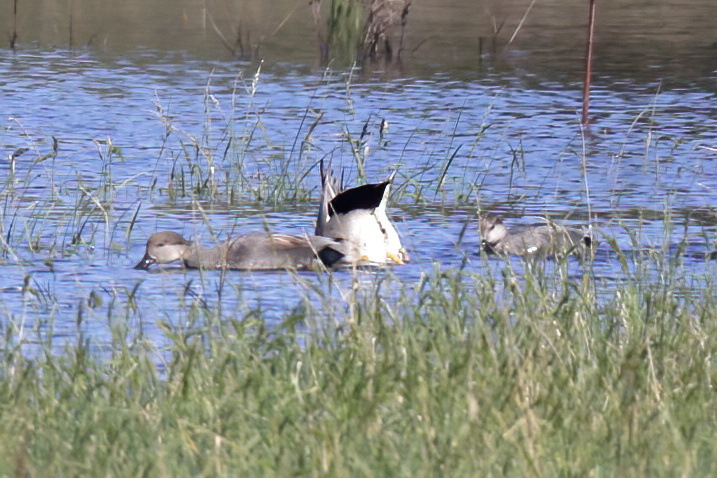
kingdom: Animalia
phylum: Chordata
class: Aves
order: Anseriformes
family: Anatidae
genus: Mareca
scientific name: Mareca strepera
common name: Gadwall
